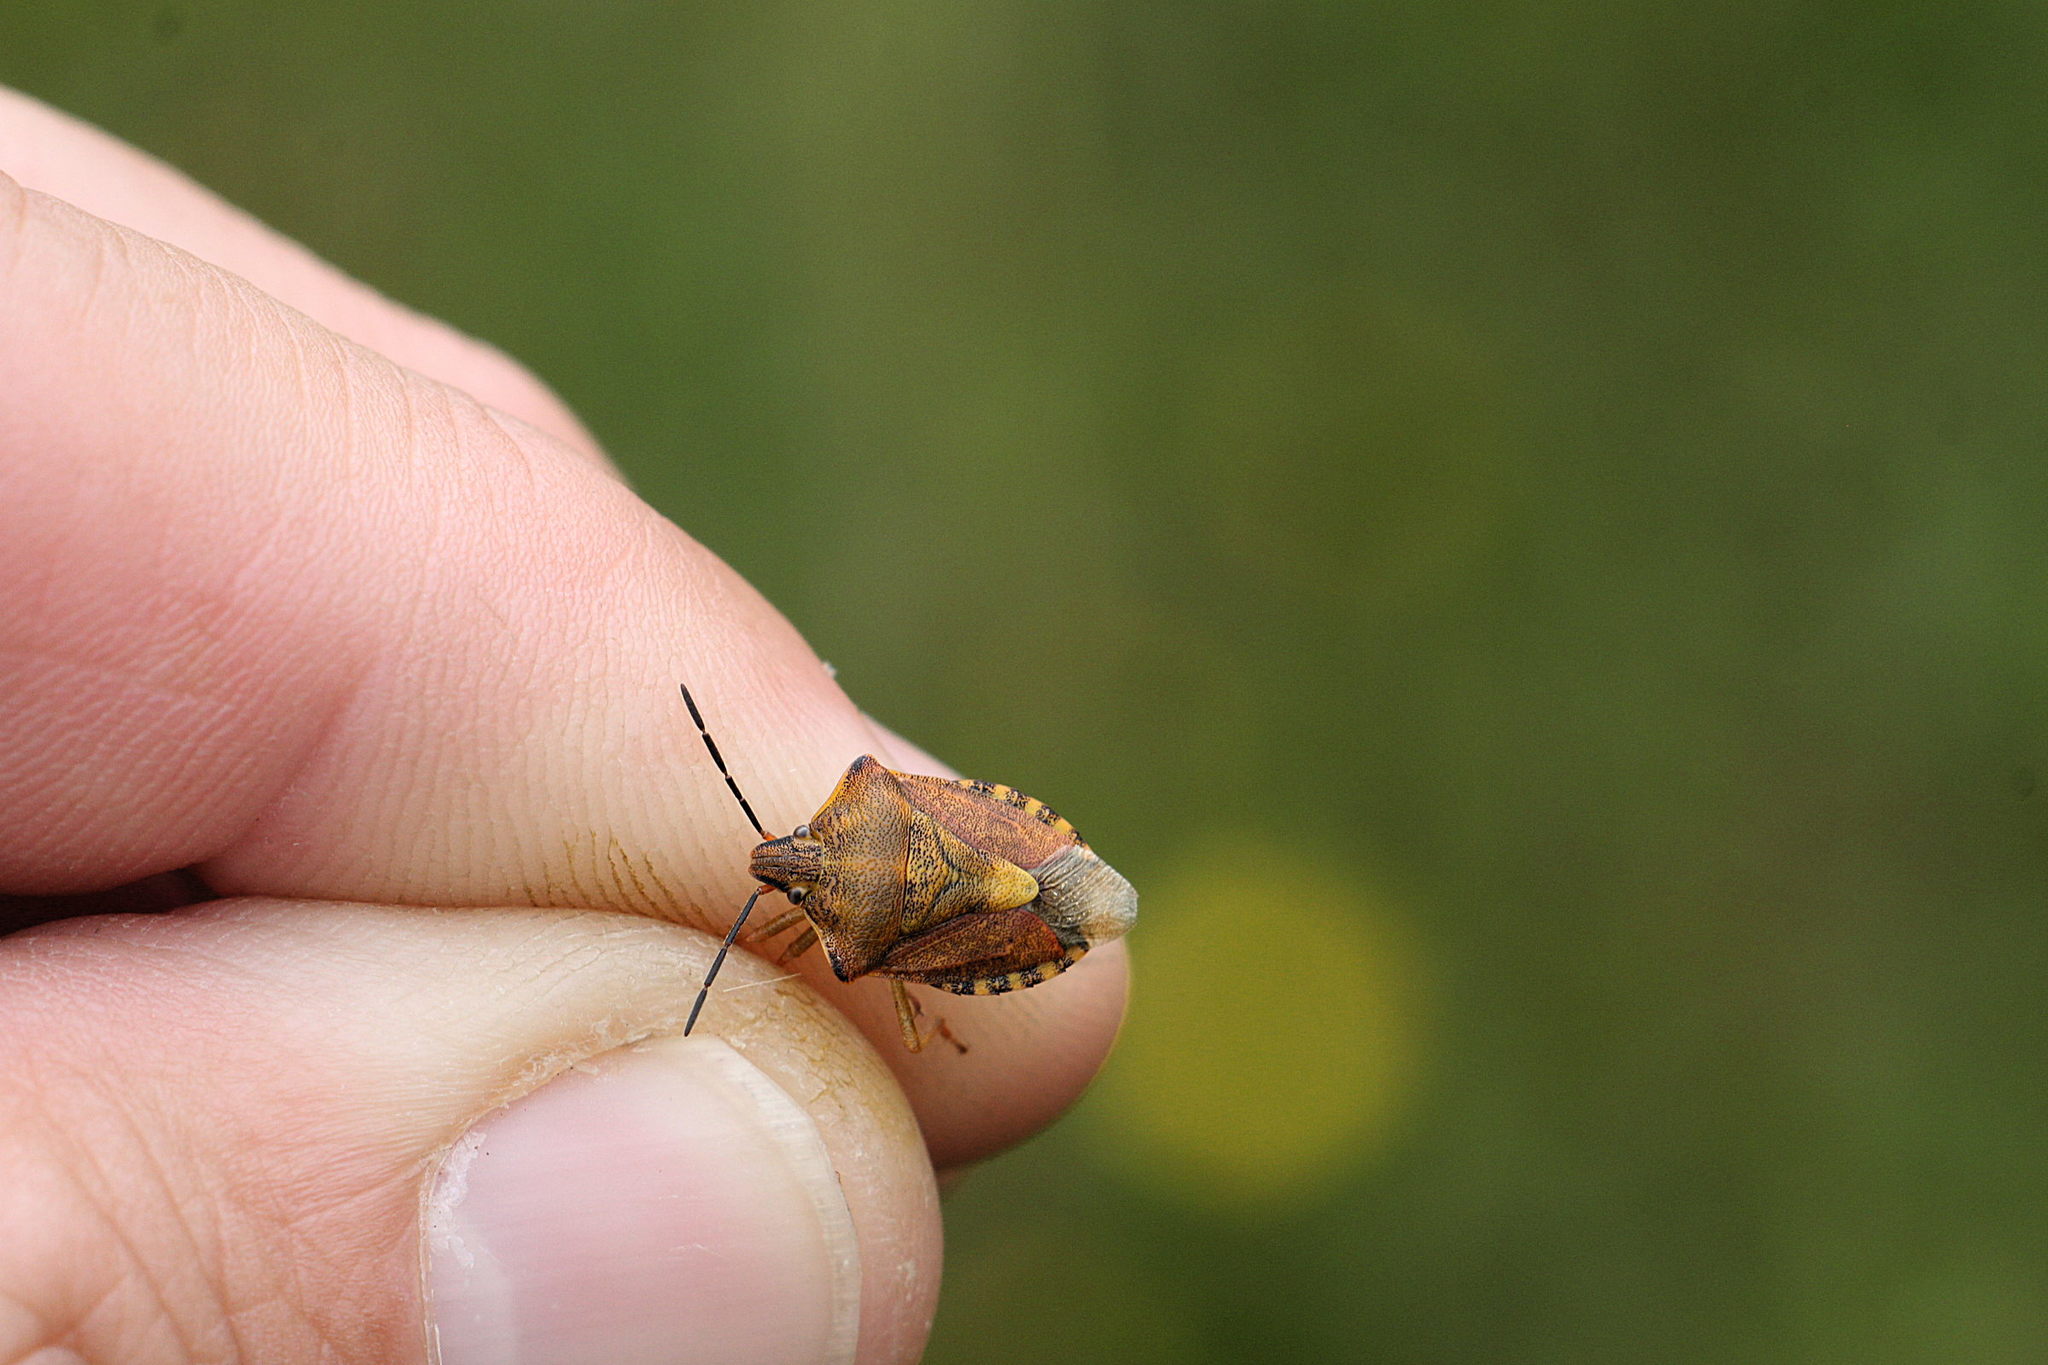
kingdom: Animalia
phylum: Arthropoda
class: Insecta
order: Hemiptera
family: Pentatomidae
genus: Carpocoris
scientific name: Carpocoris purpureipennis
